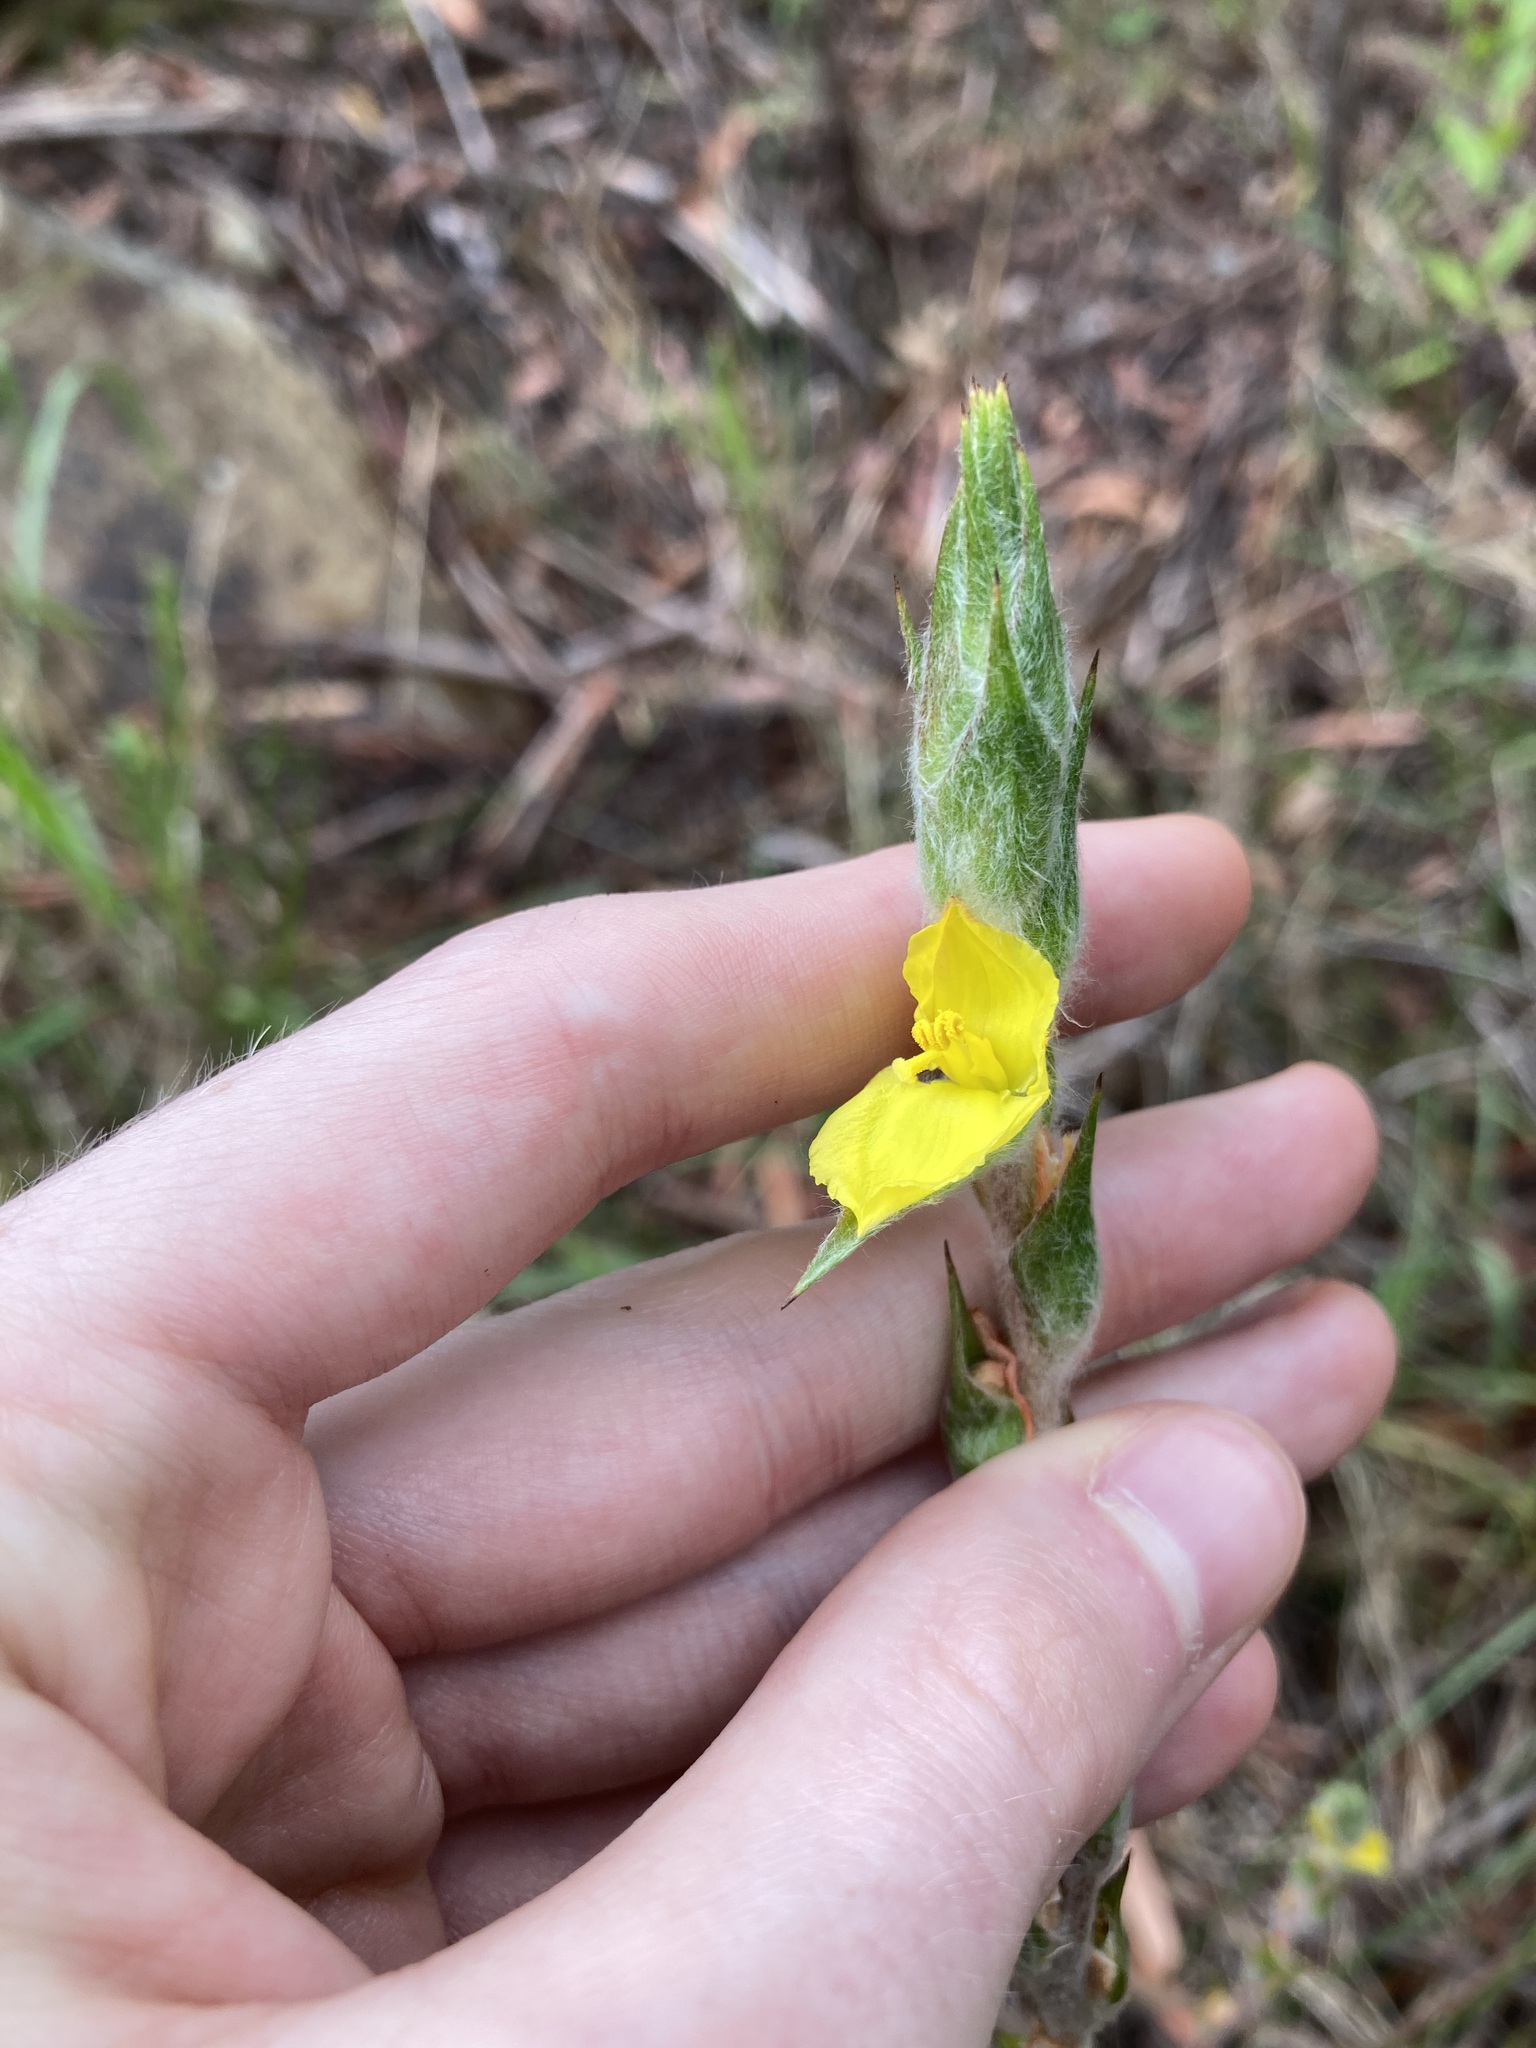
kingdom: Plantae
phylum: Tracheophyta
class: Liliopsida
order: Commelinales
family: Philydraceae
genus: Philydrum
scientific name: Philydrum lanuginosum
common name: Woolly frog's mouth
